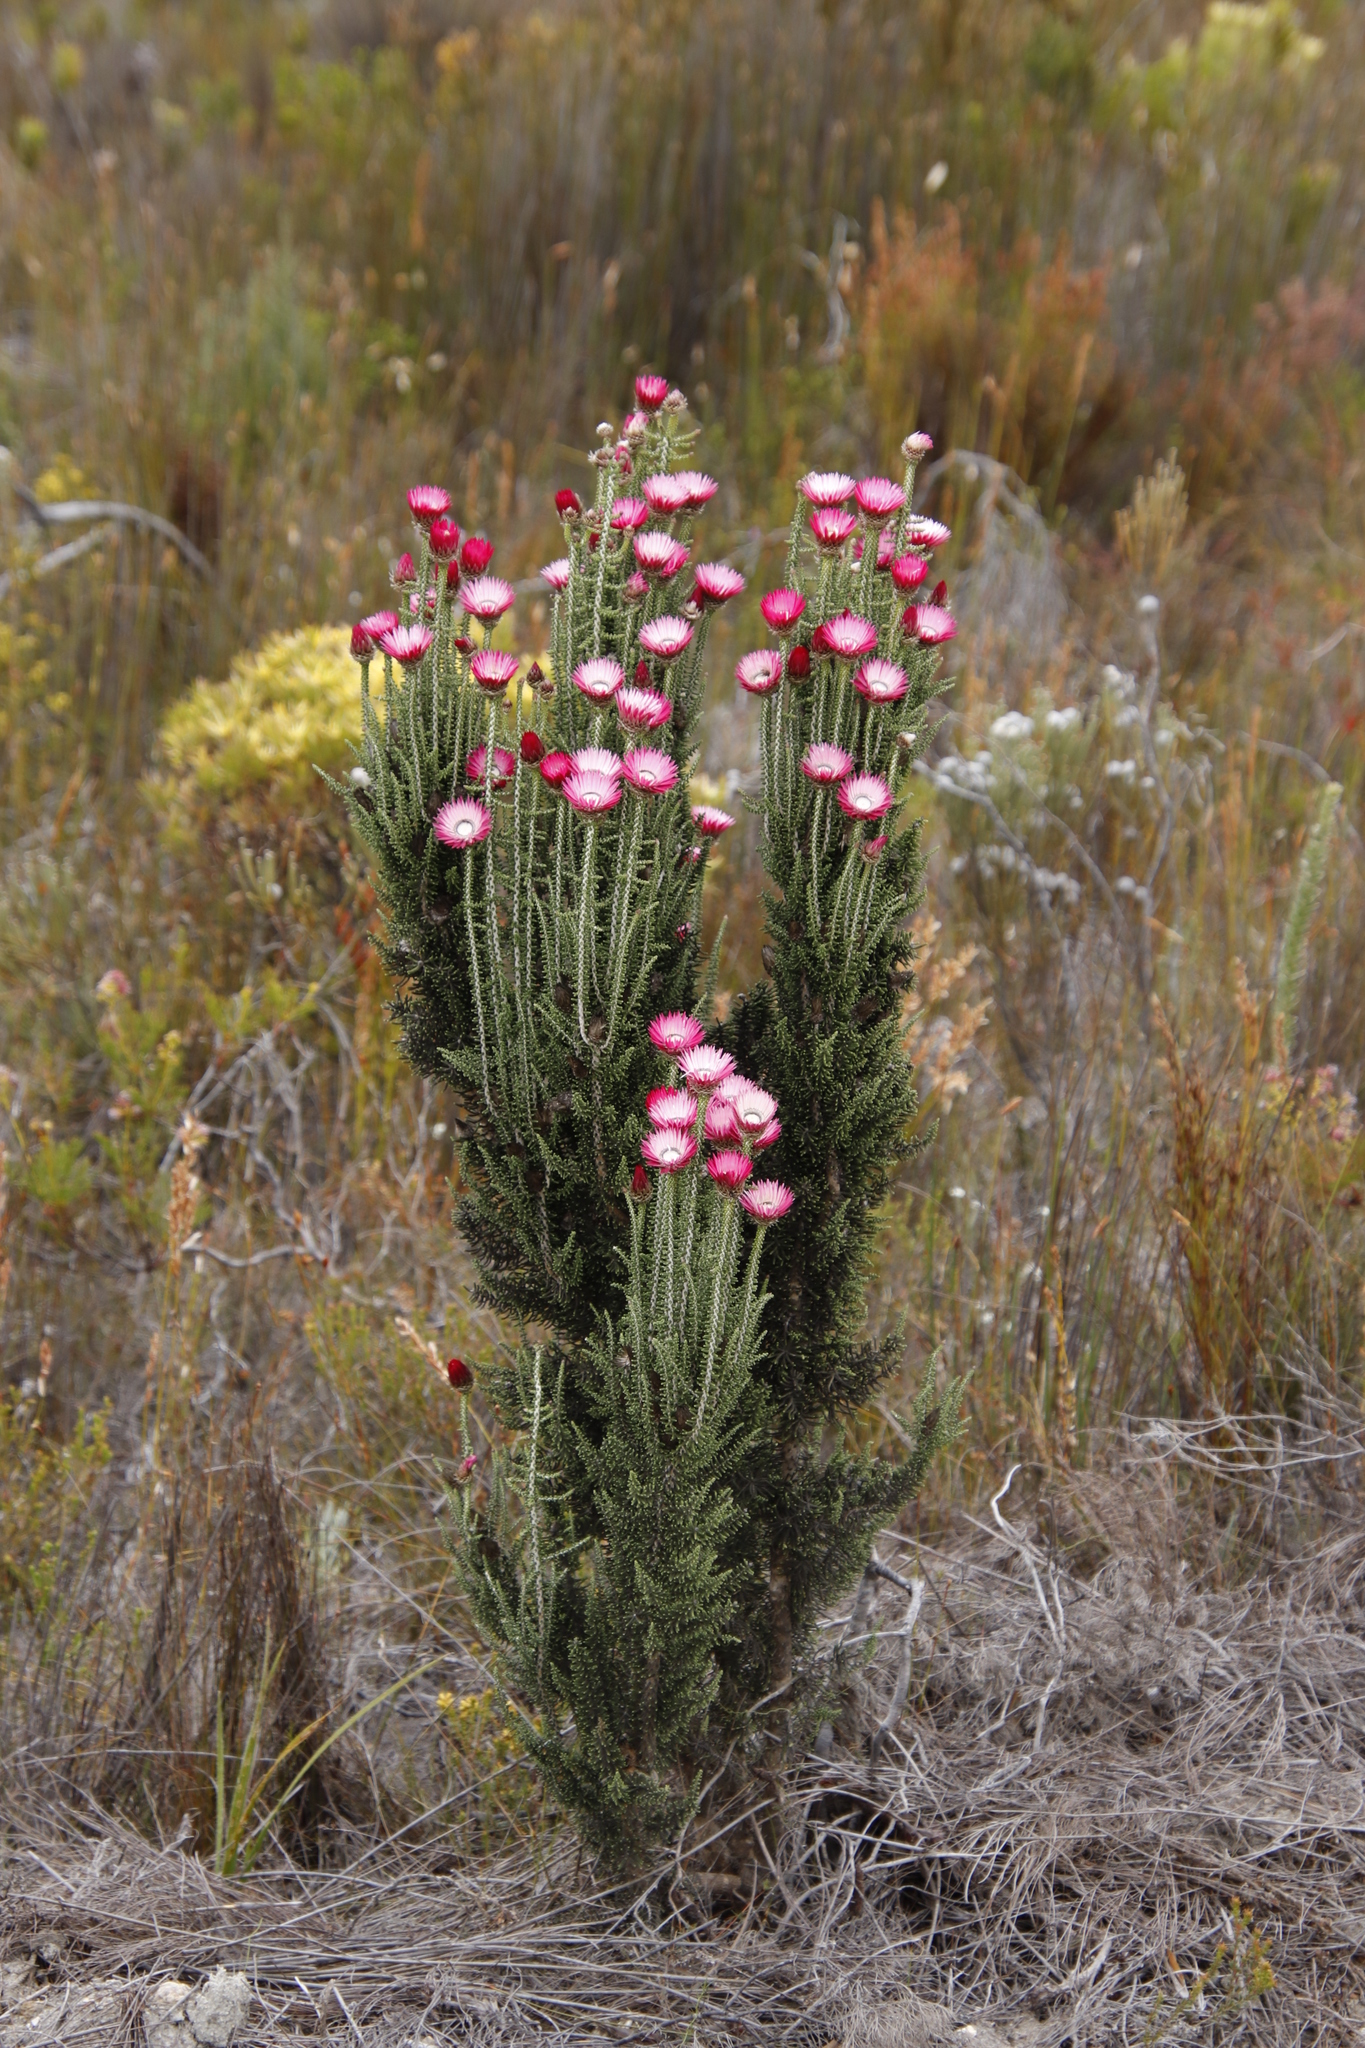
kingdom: Plantae
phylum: Tracheophyta
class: Magnoliopsida
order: Asterales
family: Asteraceae
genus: Phaenocoma
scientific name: Phaenocoma prolifera
